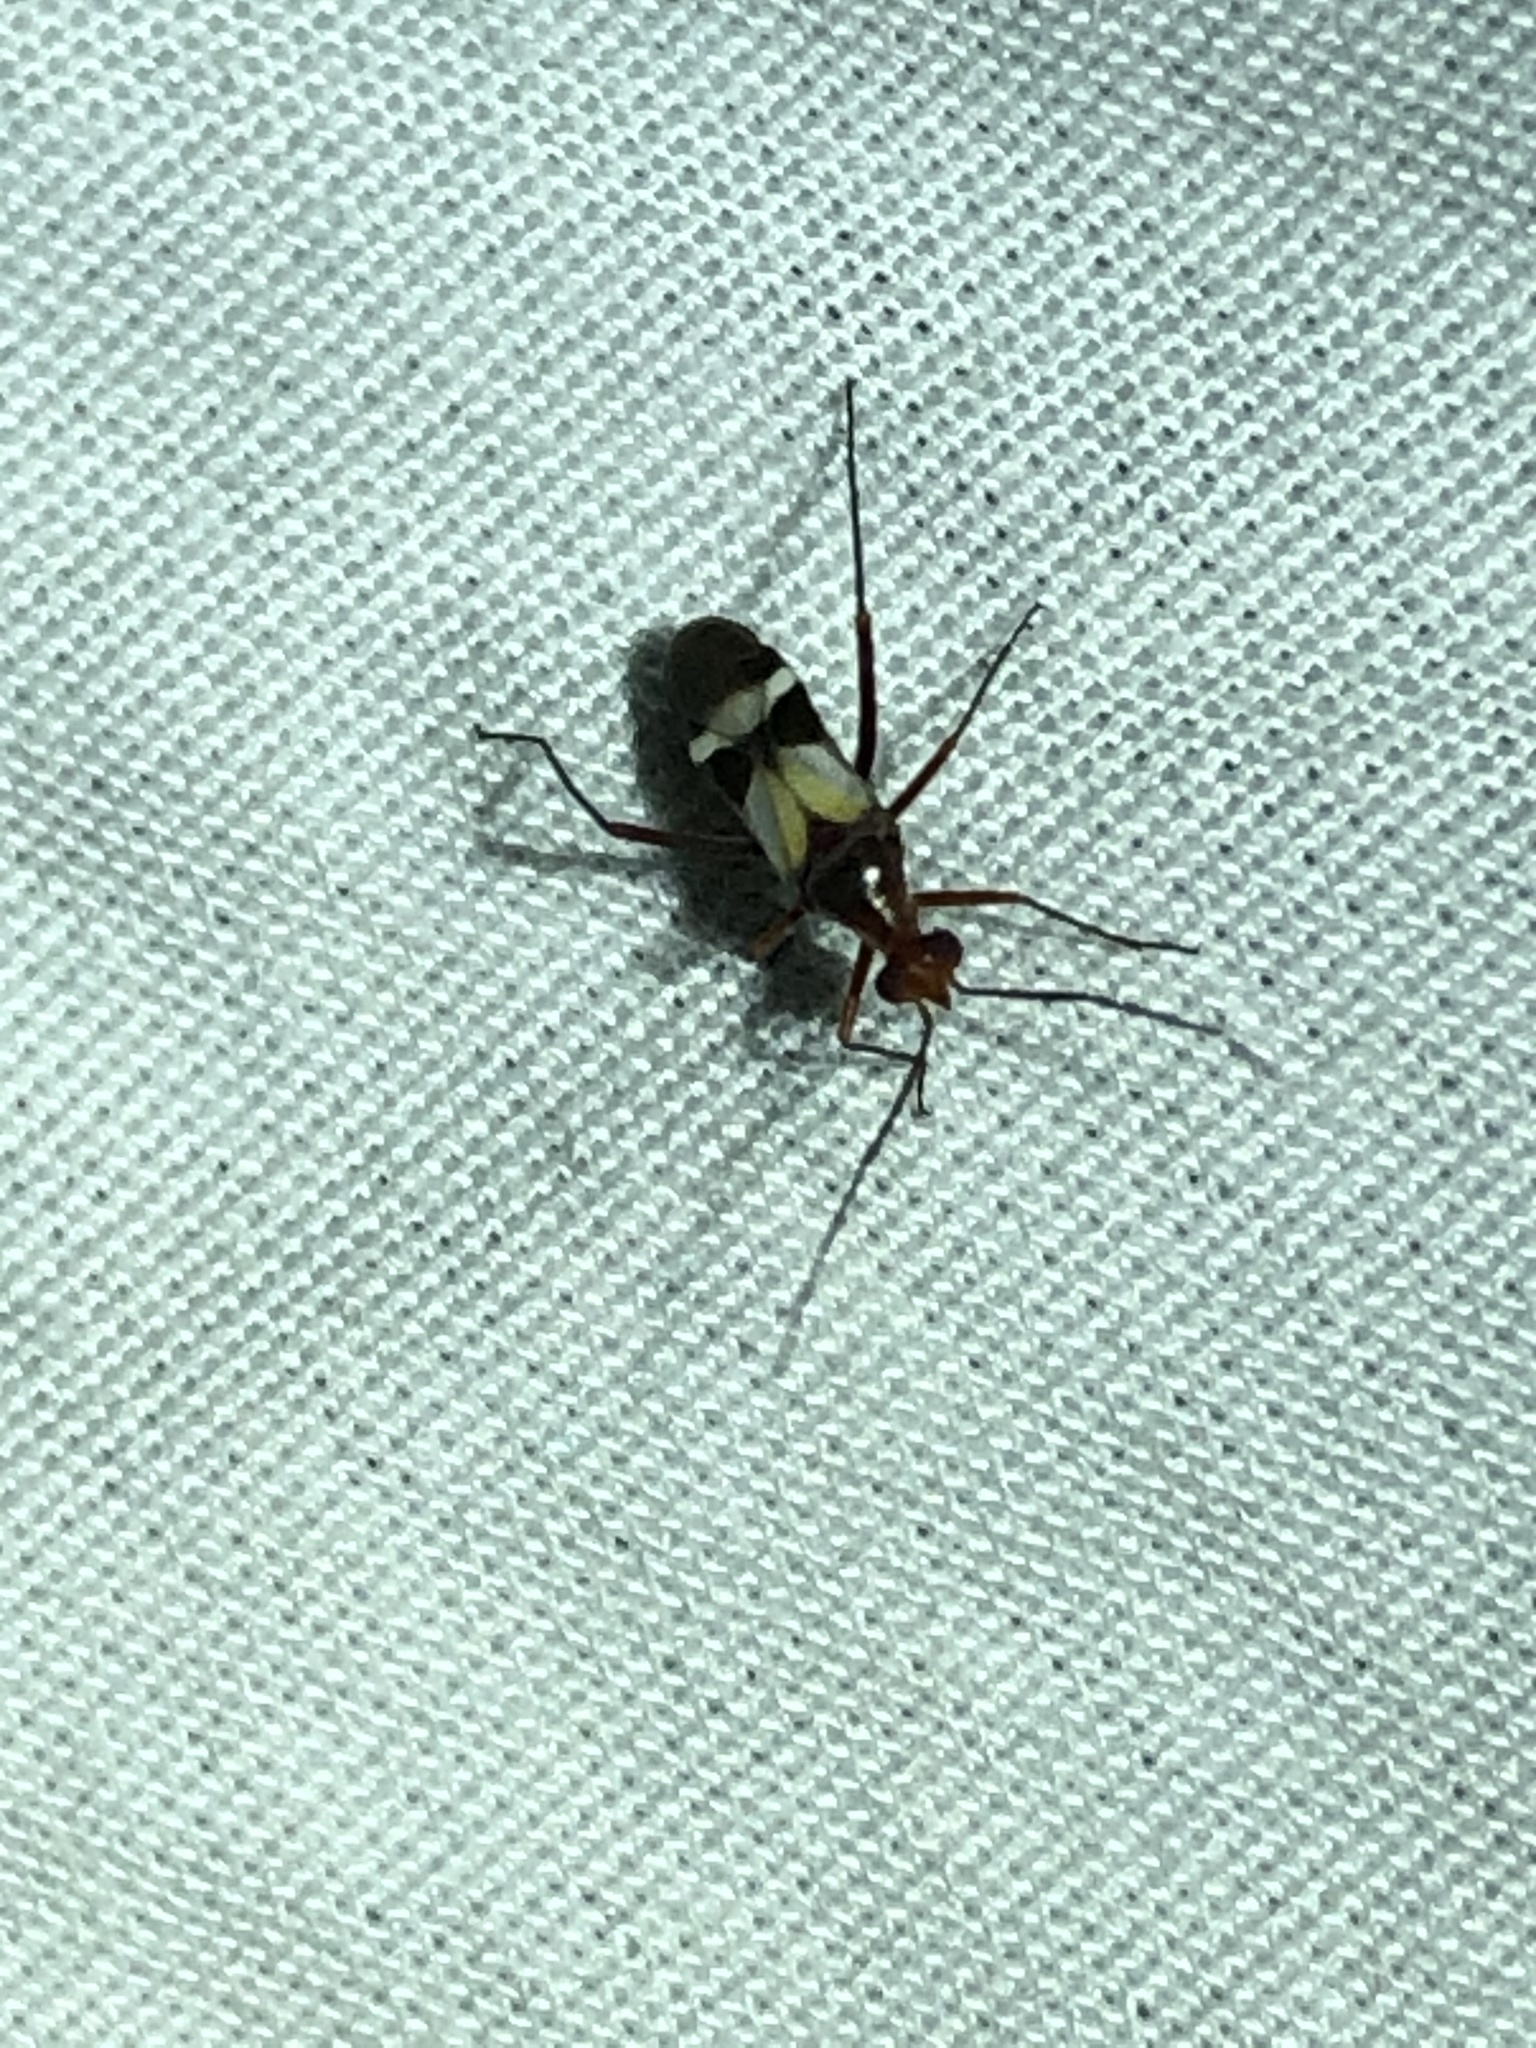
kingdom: Animalia
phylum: Arthropoda
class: Insecta
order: Hemiptera
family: Miridae
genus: Coquillettia
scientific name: Coquillettia lactea
